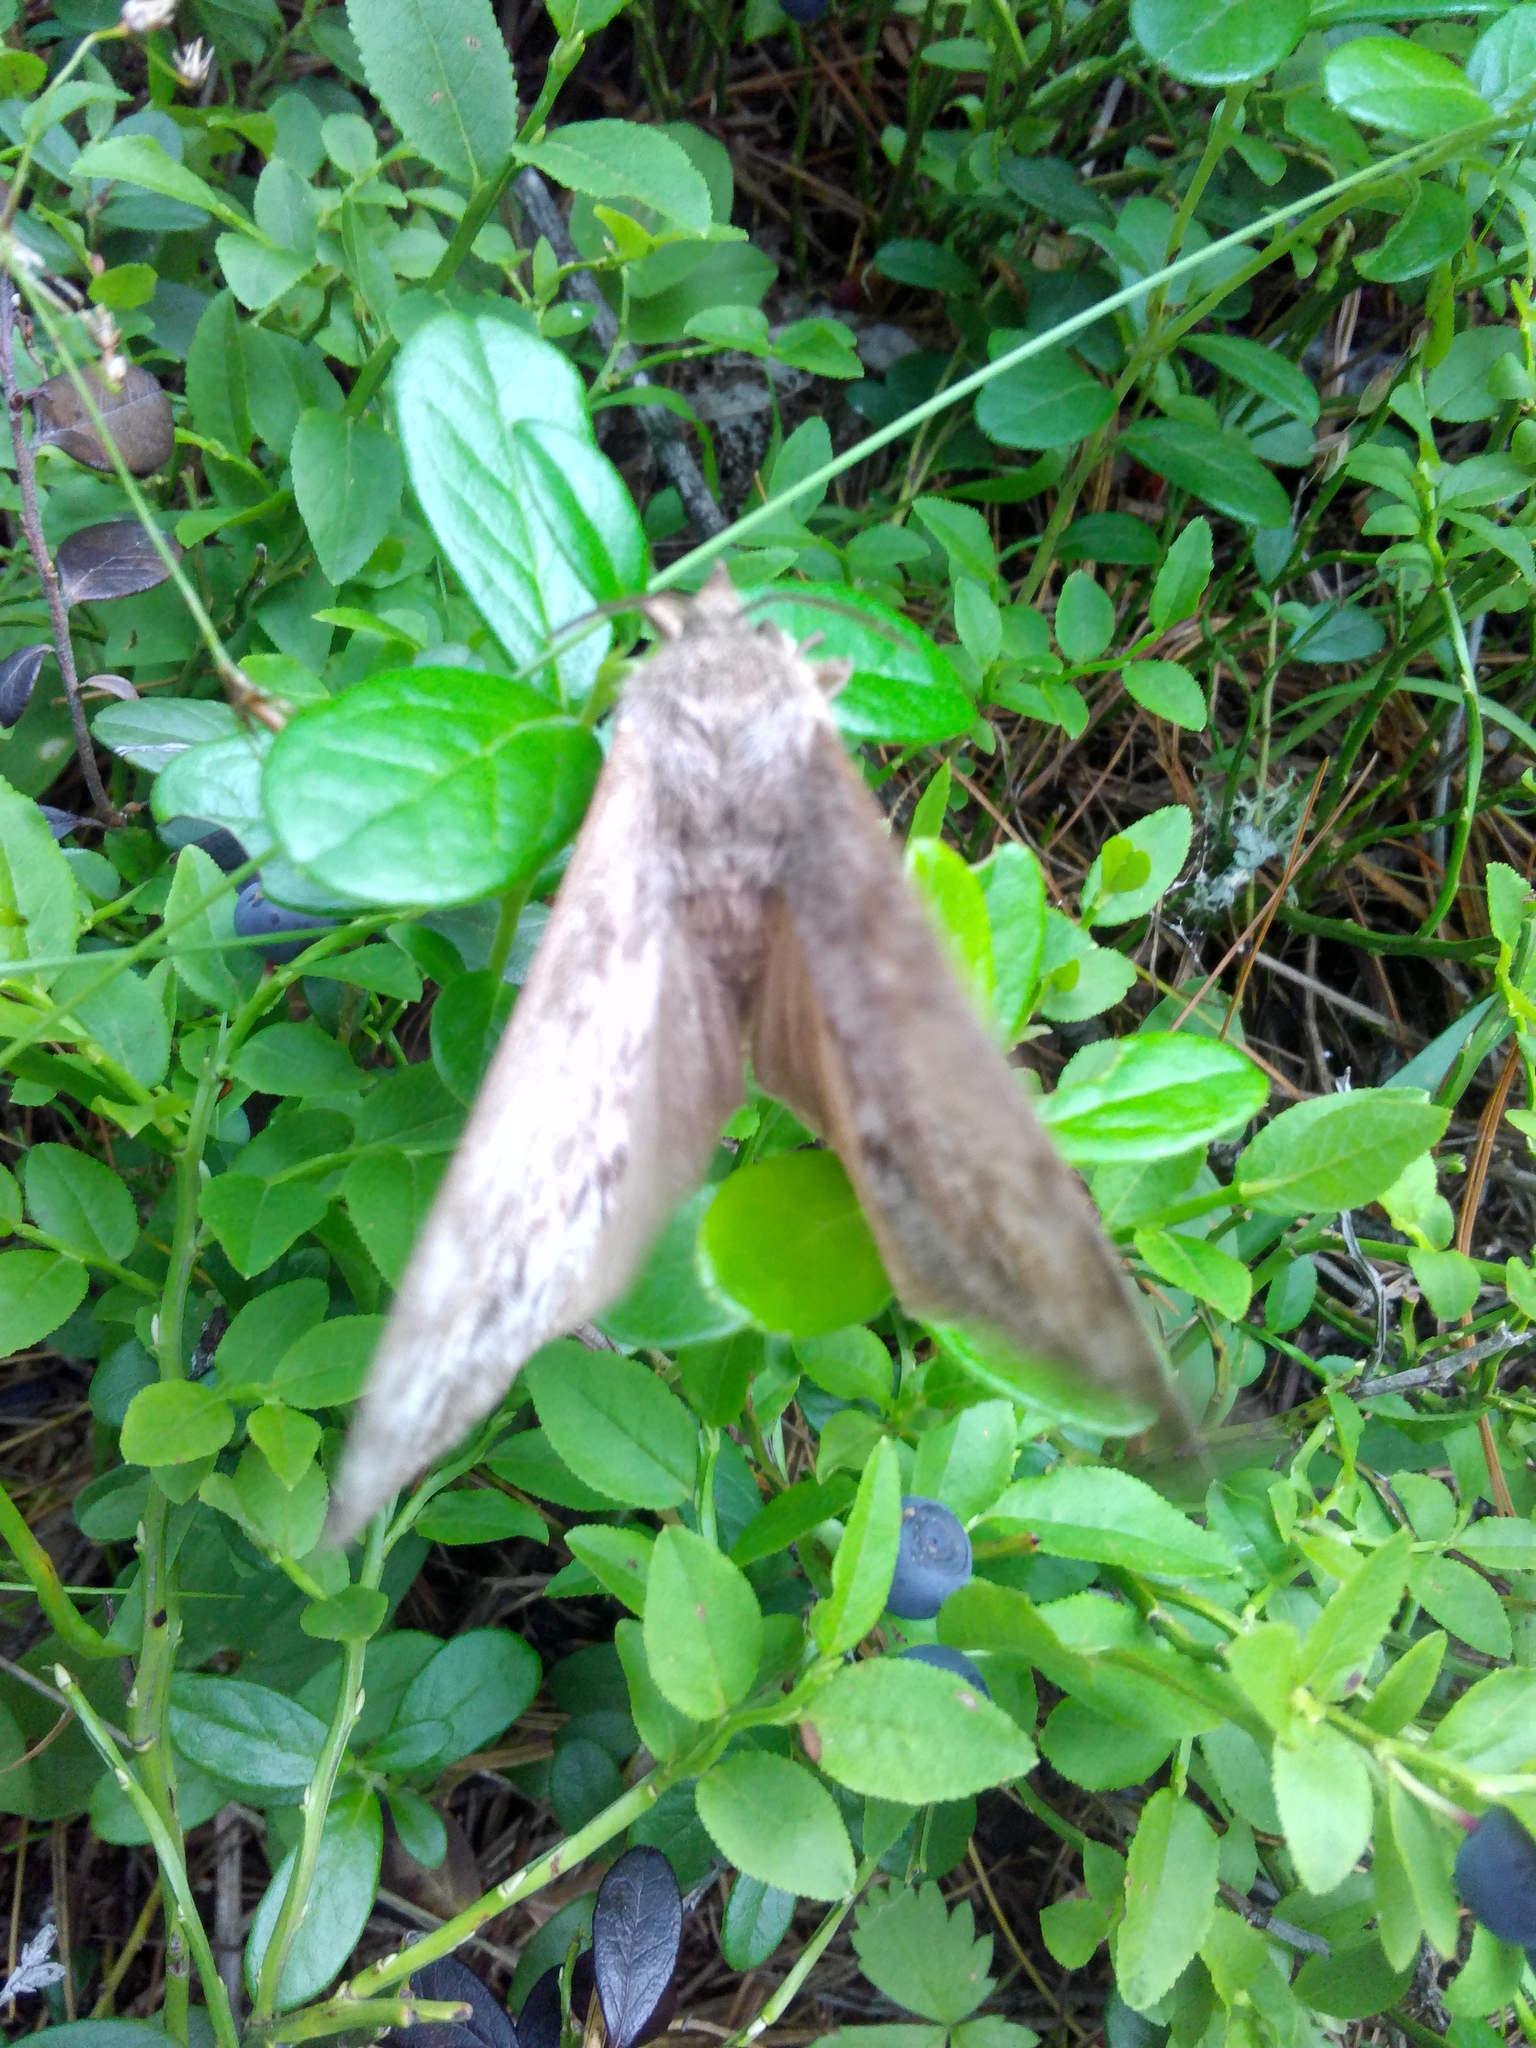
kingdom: Animalia
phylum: Arthropoda
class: Insecta
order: Lepidoptera
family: Lasiocampidae
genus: Dendrolimus
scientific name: Dendrolimus superans
